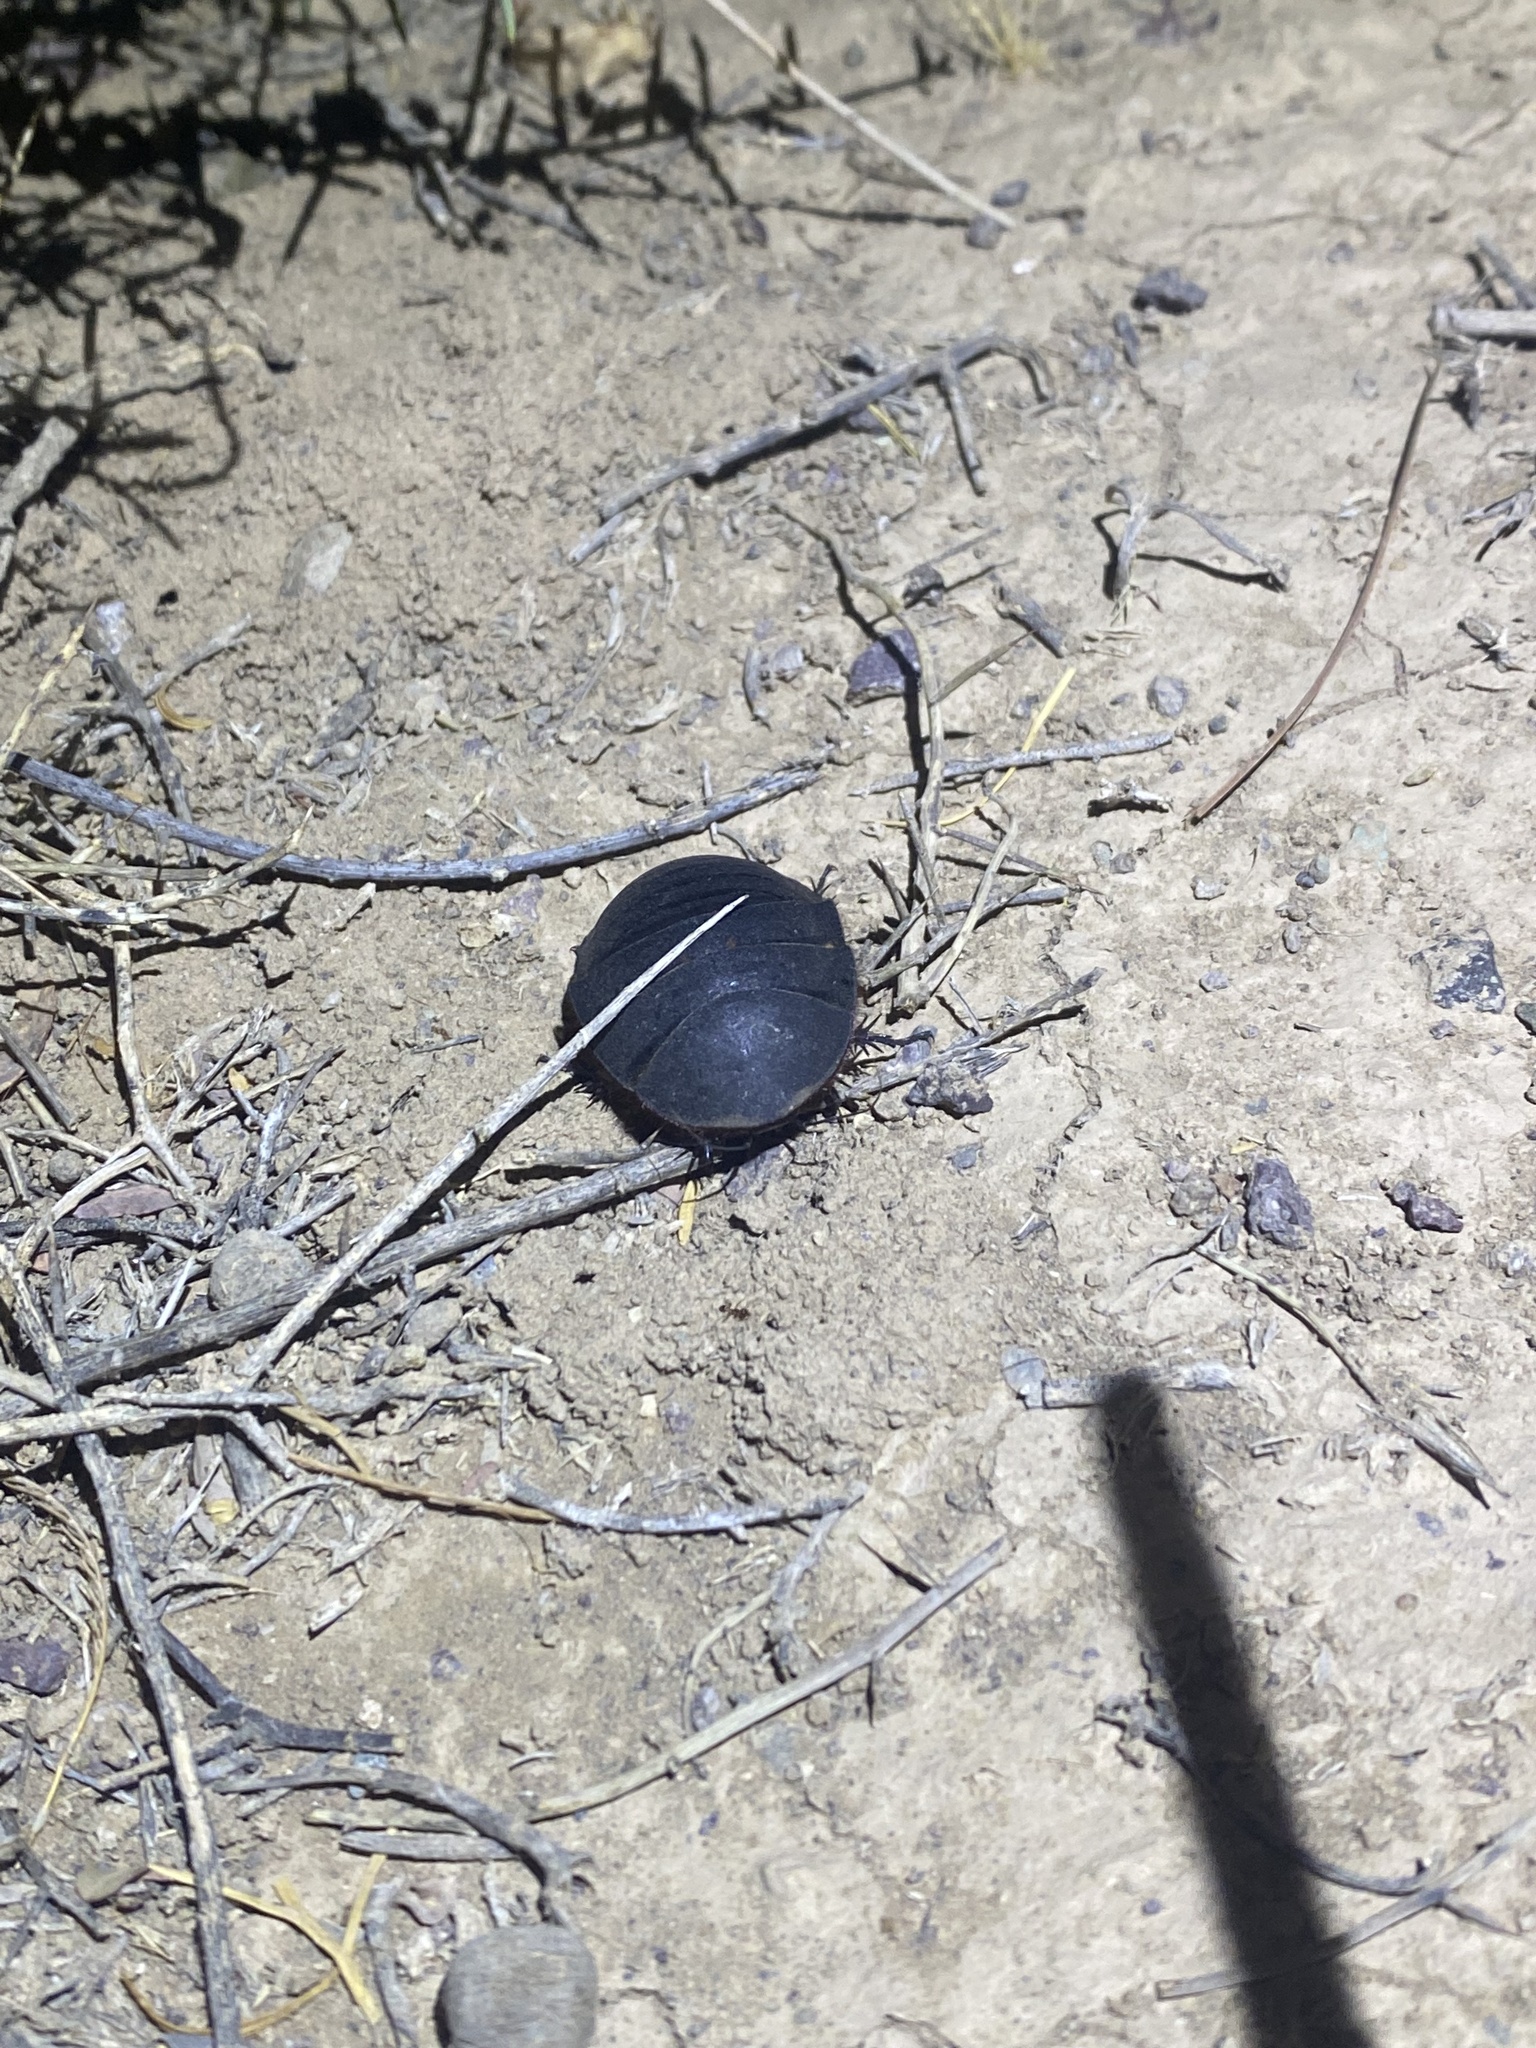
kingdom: Animalia
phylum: Arthropoda
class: Insecta
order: Blattodea
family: Corydiidae
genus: Polyphaga
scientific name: Polyphaga aegyptiaca
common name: Egyptian cockroach
